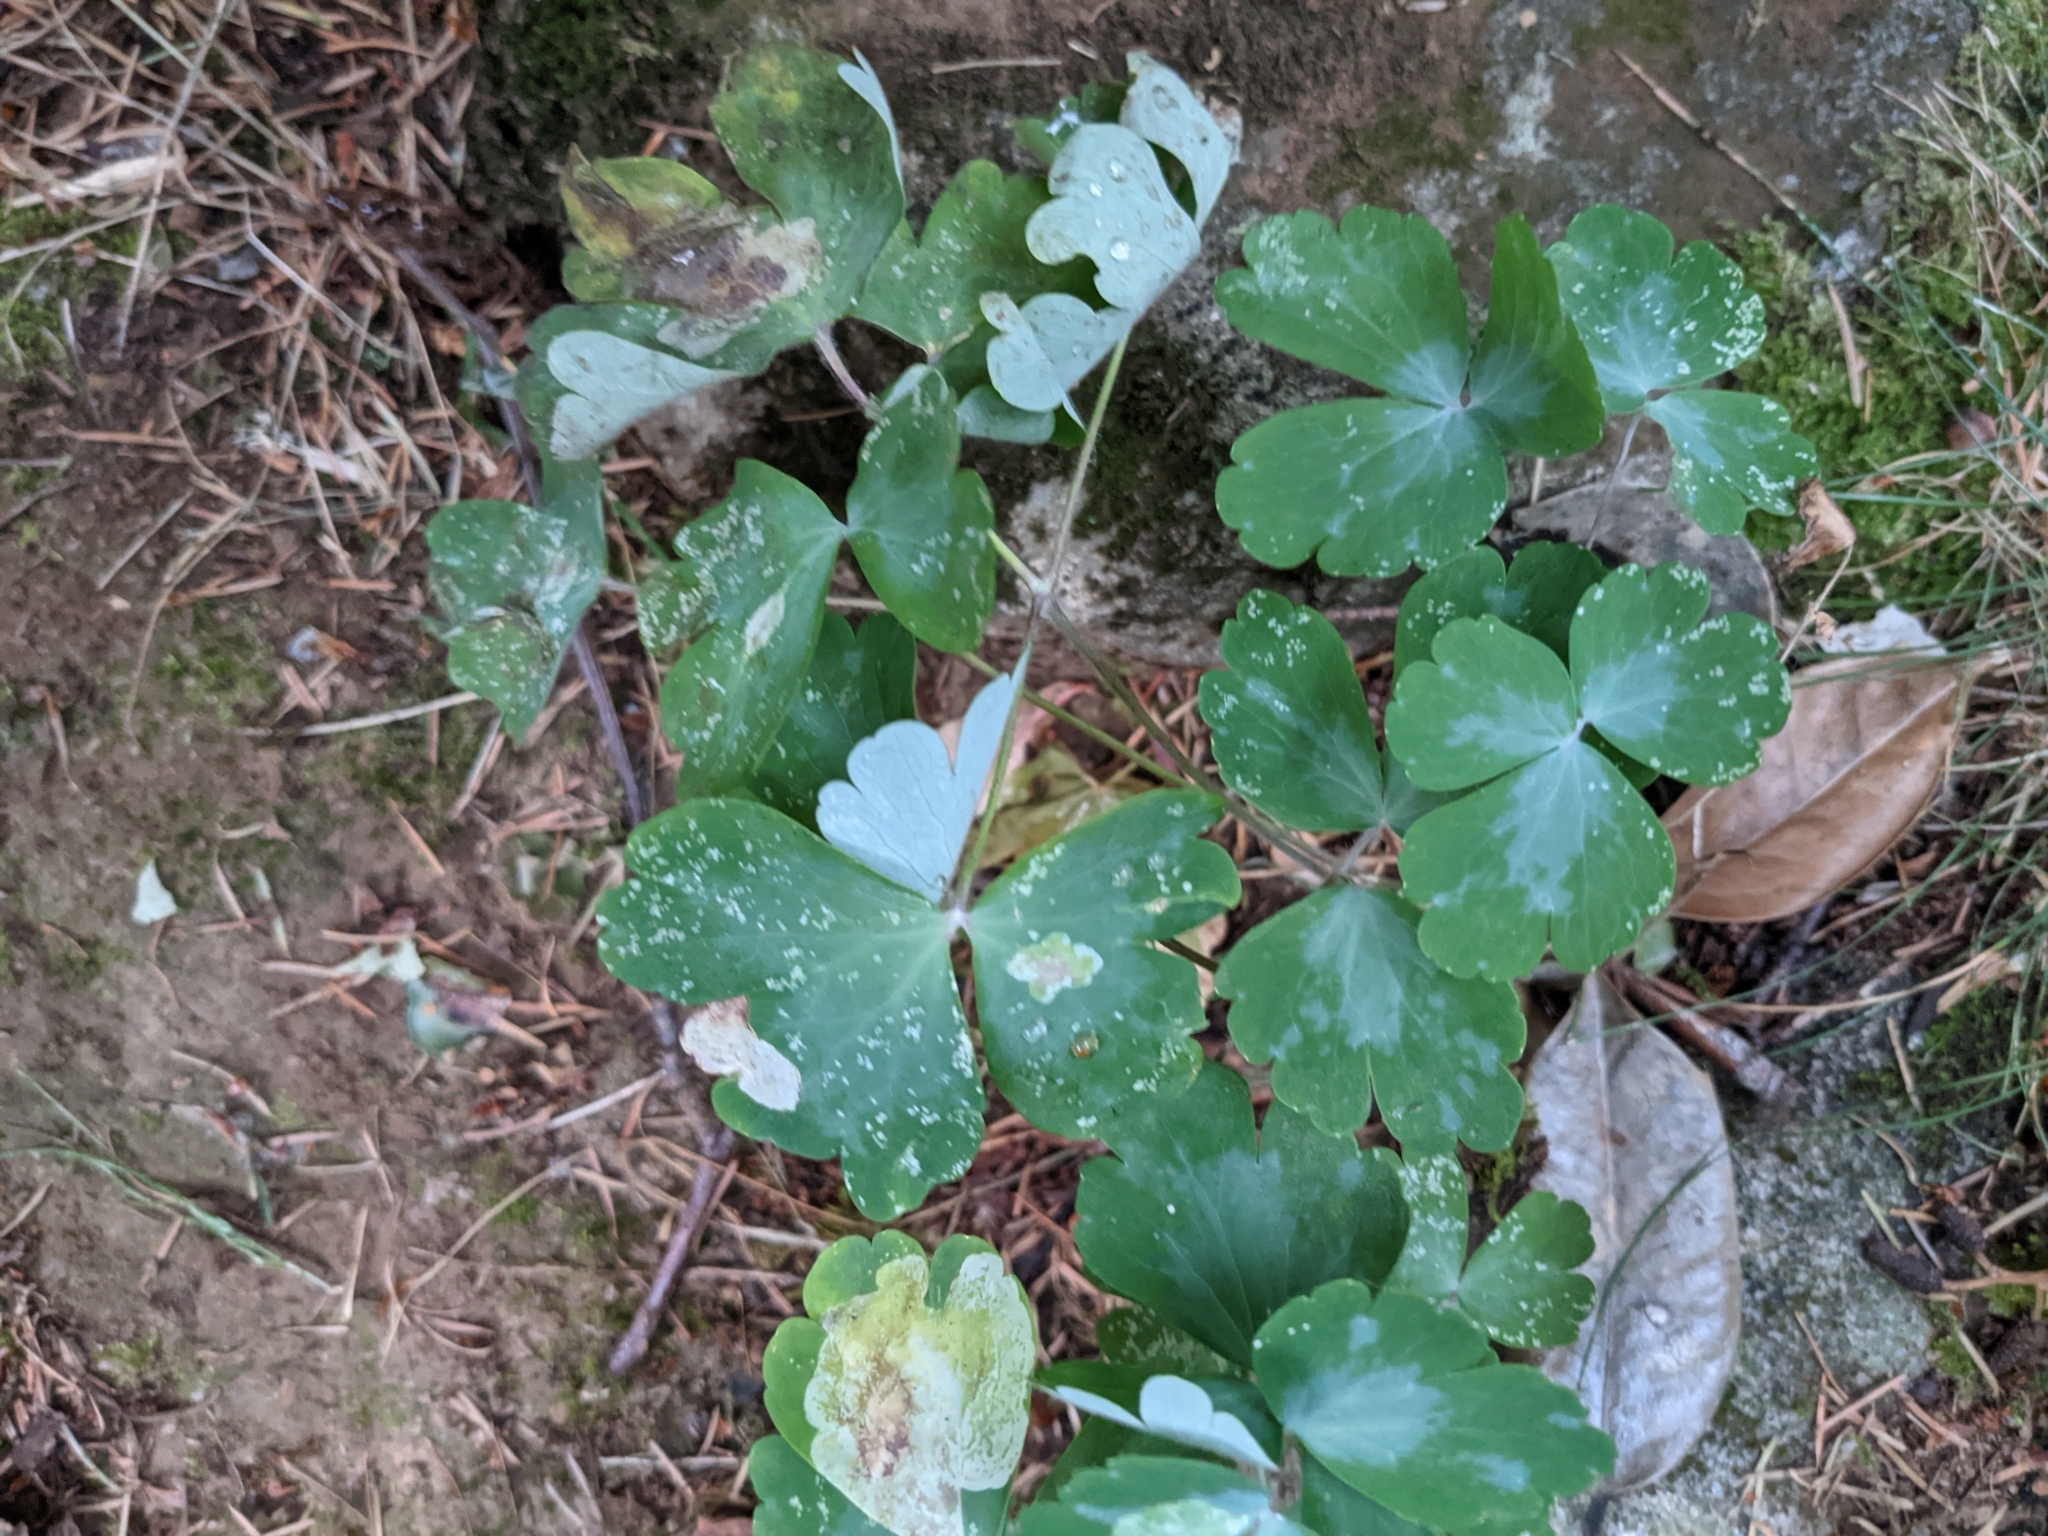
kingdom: Plantae
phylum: Tracheophyta
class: Magnoliopsida
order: Ranunculales
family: Ranunculaceae
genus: Aquilegia
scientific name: Aquilegia vulgaris
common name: Columbine
